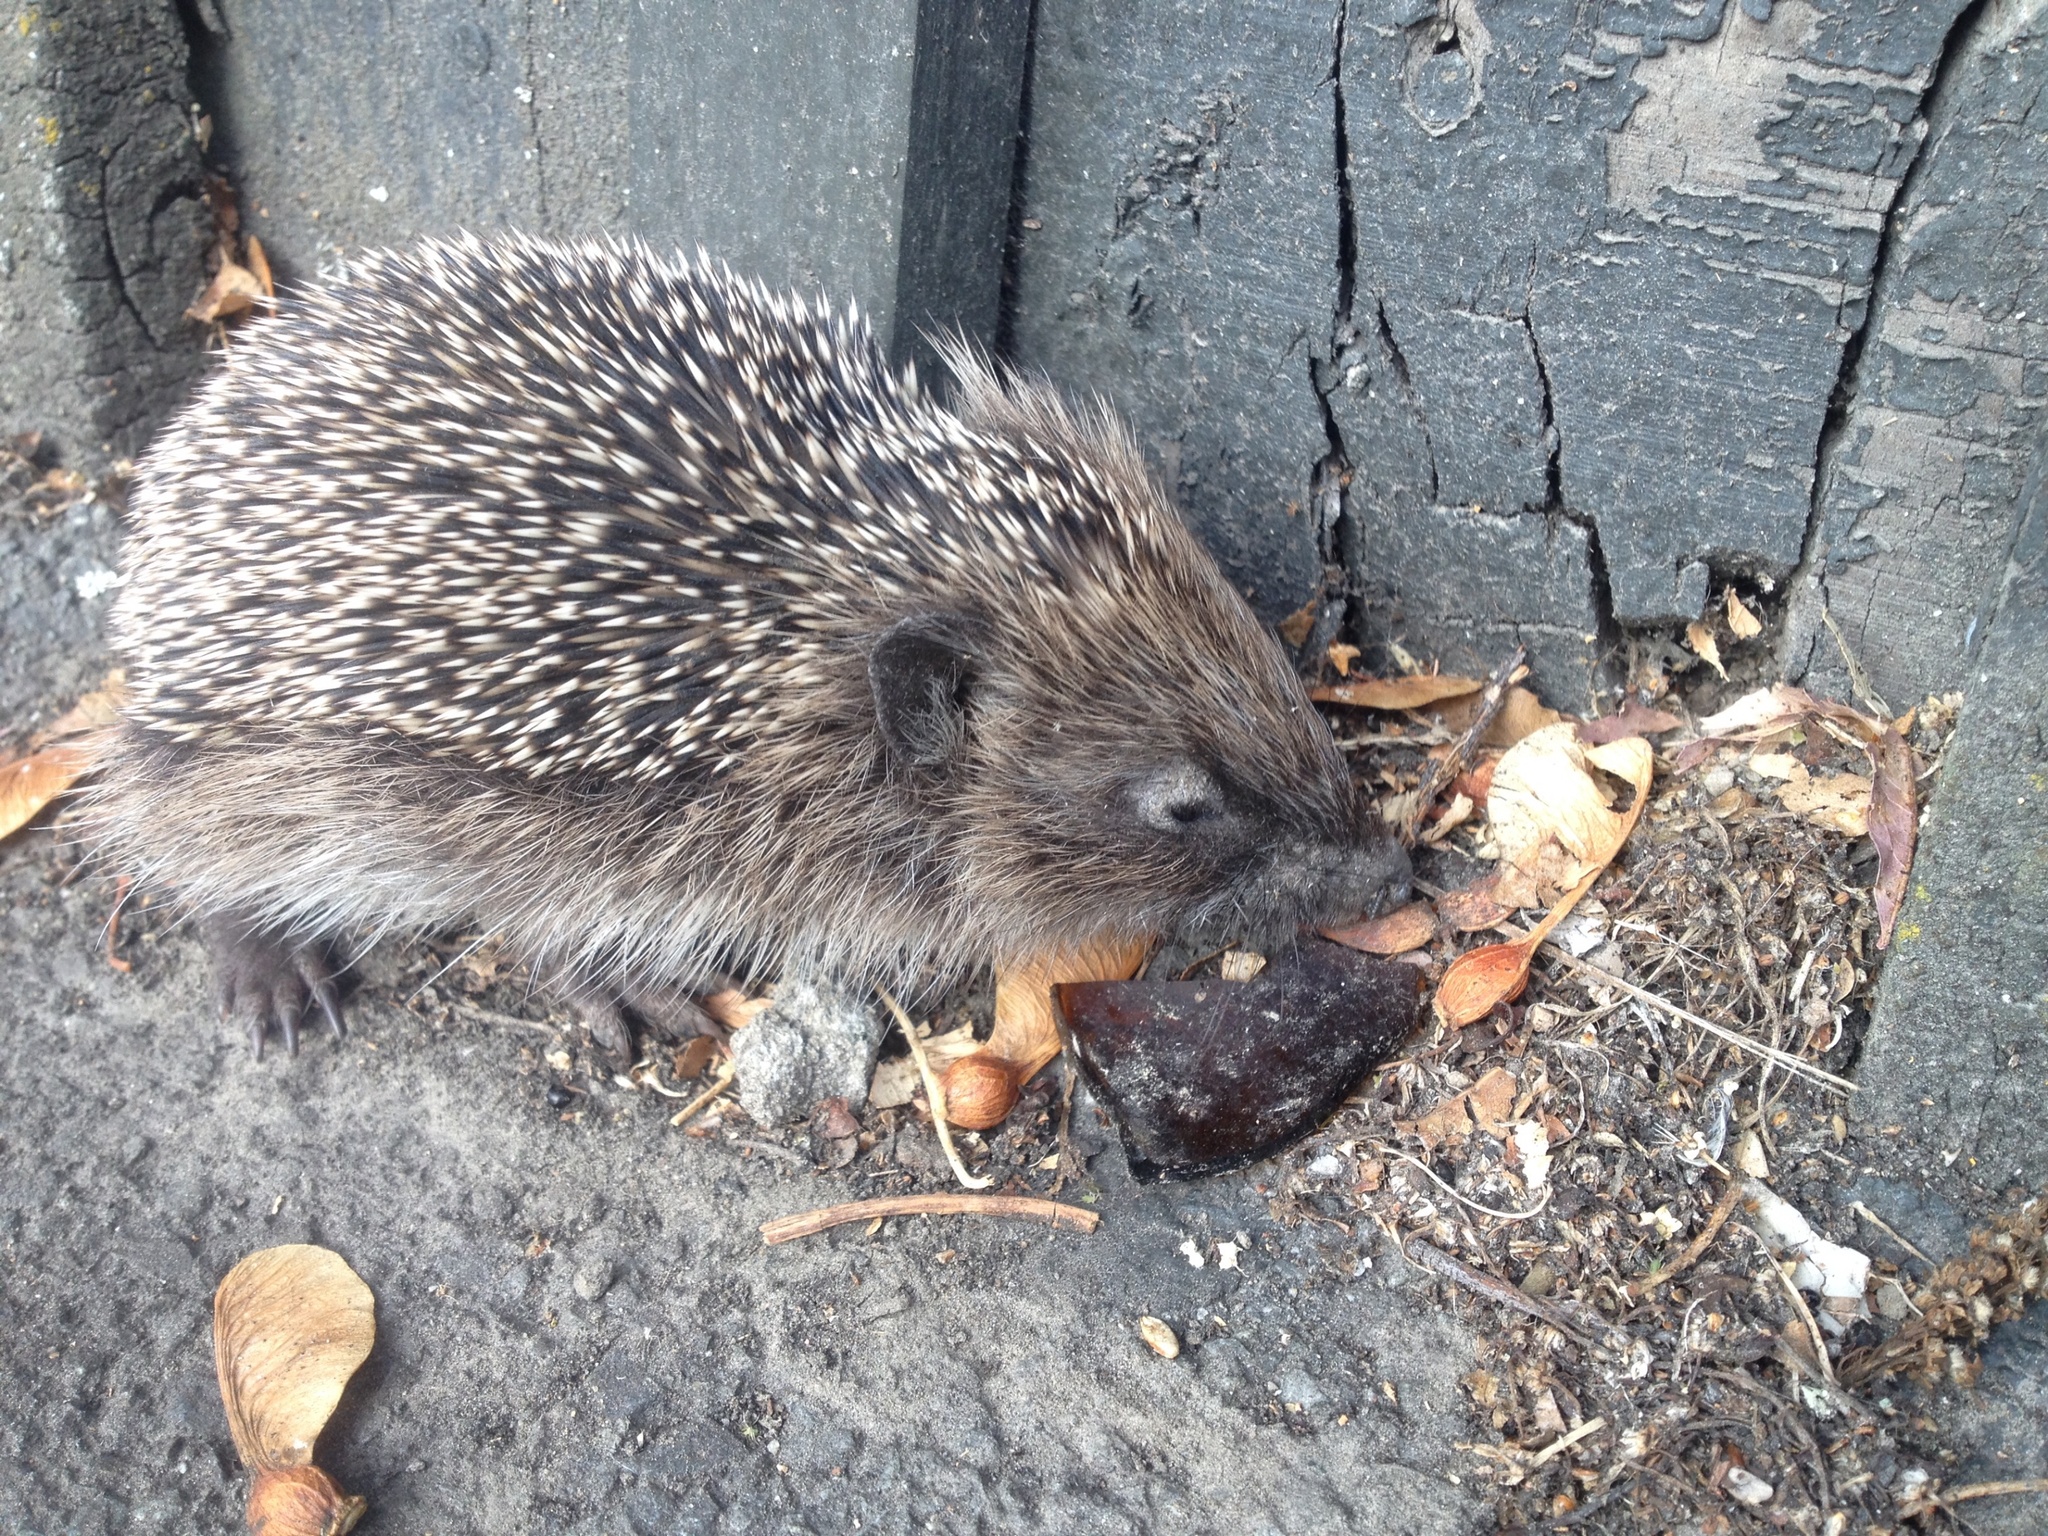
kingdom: Animalia
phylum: Chordata
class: Mammalia
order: Erinaceomorpha
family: Erinaceidae
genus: Erinaceus
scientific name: Erinaceus europaeus
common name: West european hedgehog
